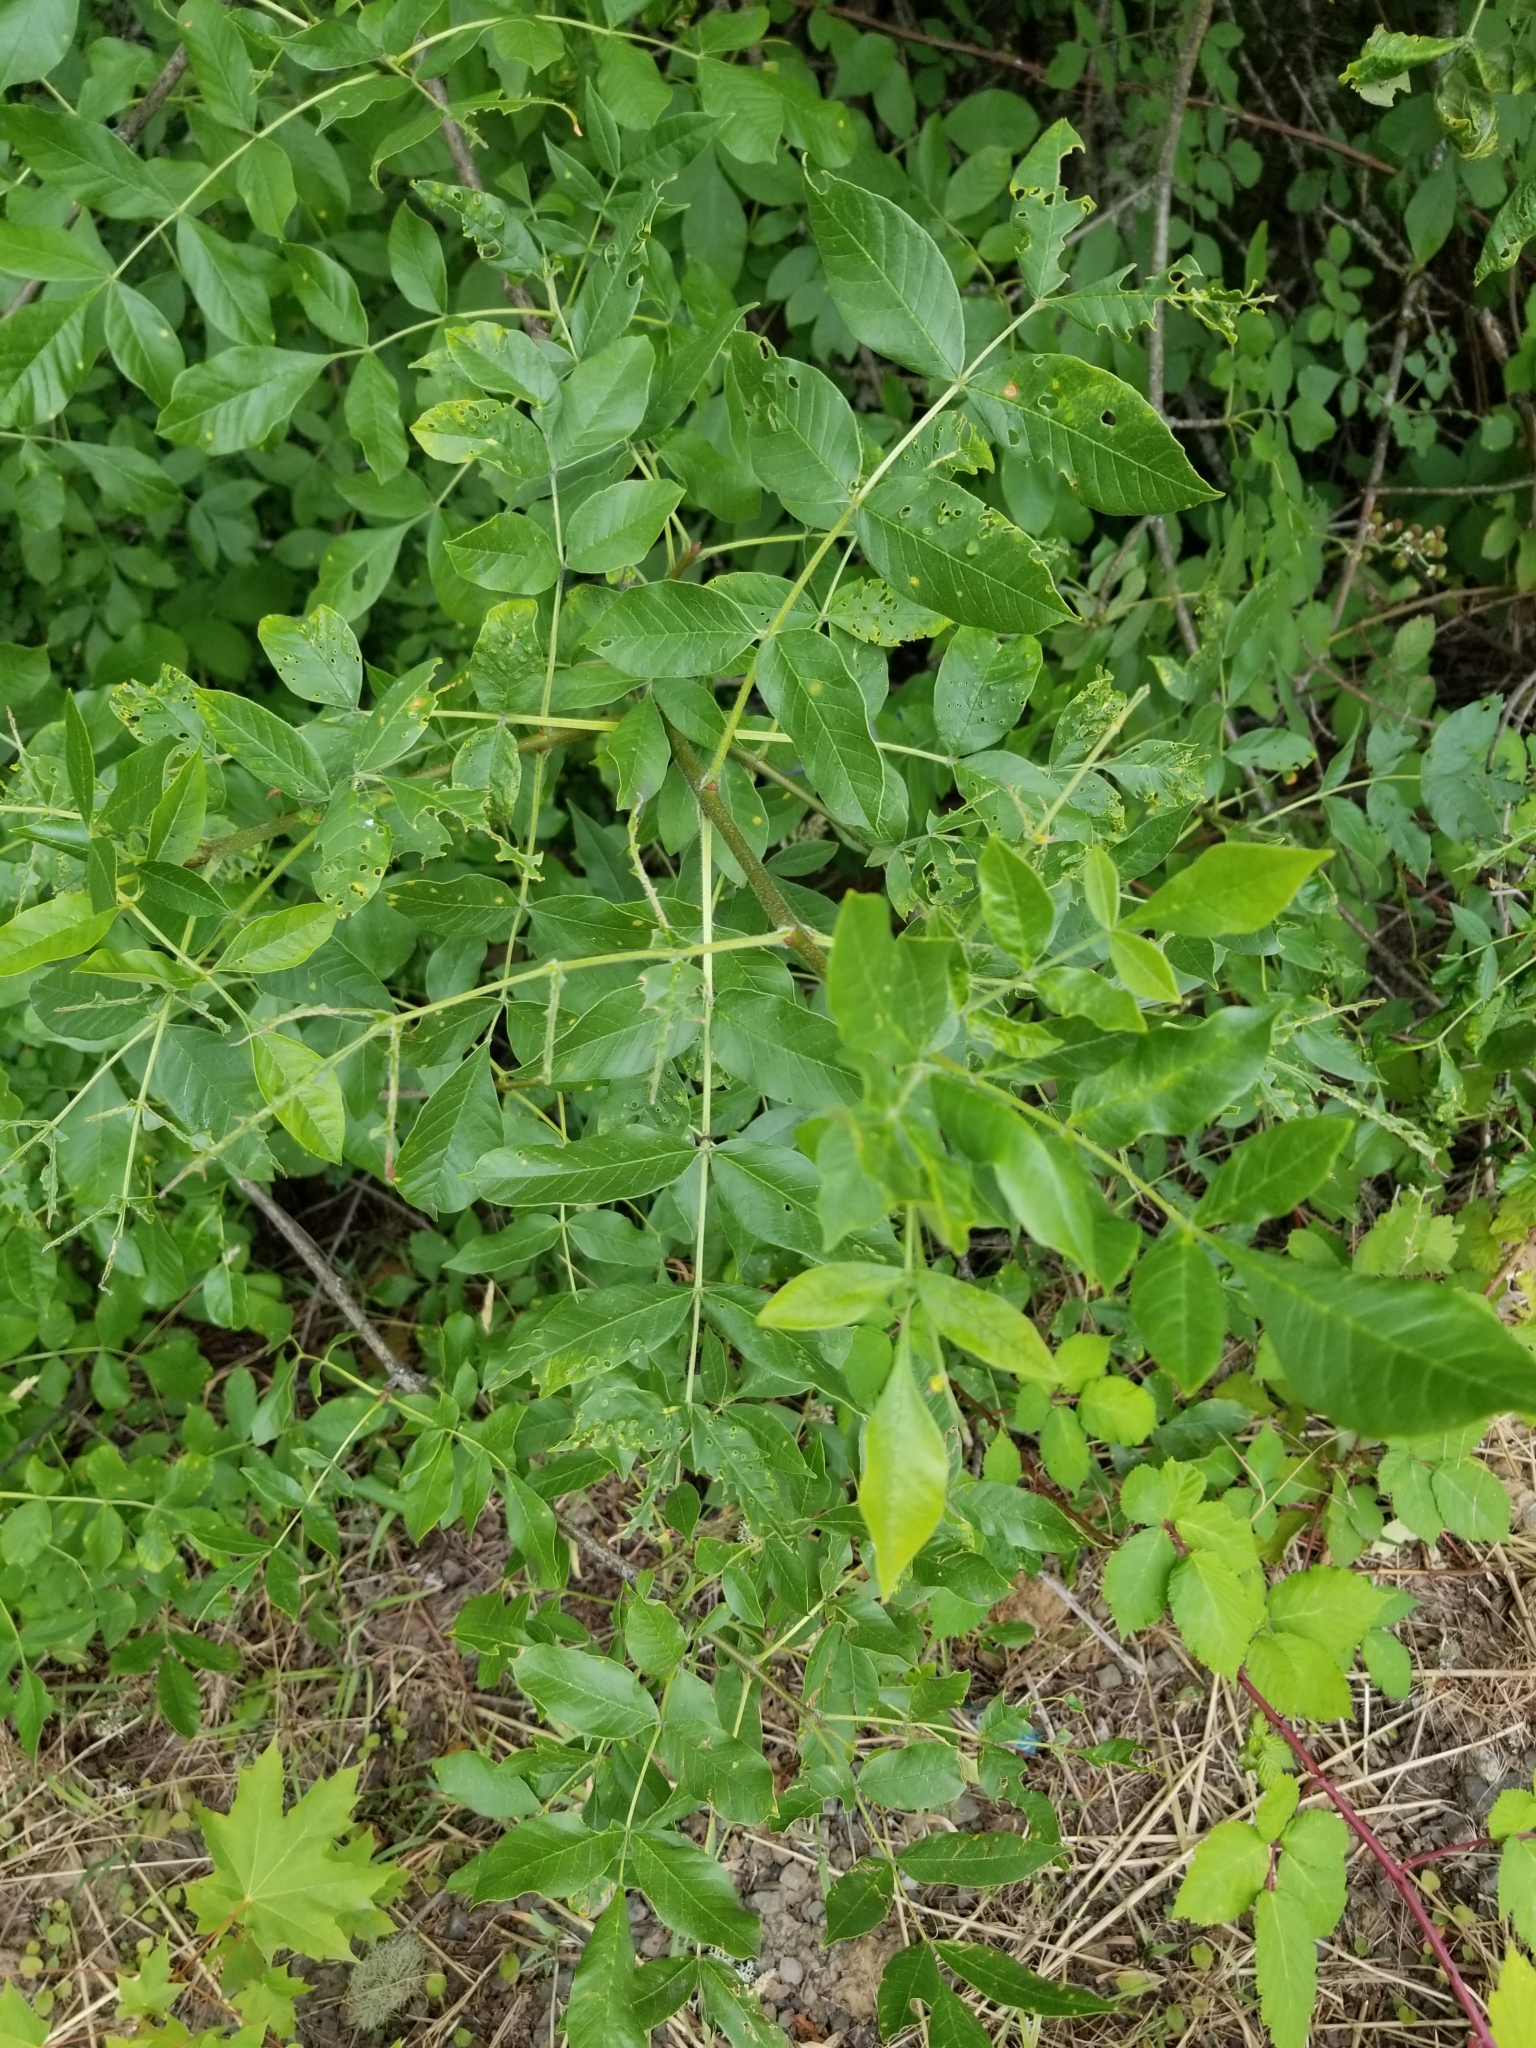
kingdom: Plantae
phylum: Tracheophyta
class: Magnoliopsida
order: Lamiales
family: Oleaceae
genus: Fraxinus
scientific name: Fraxinus latifolia
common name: Oregon ash
